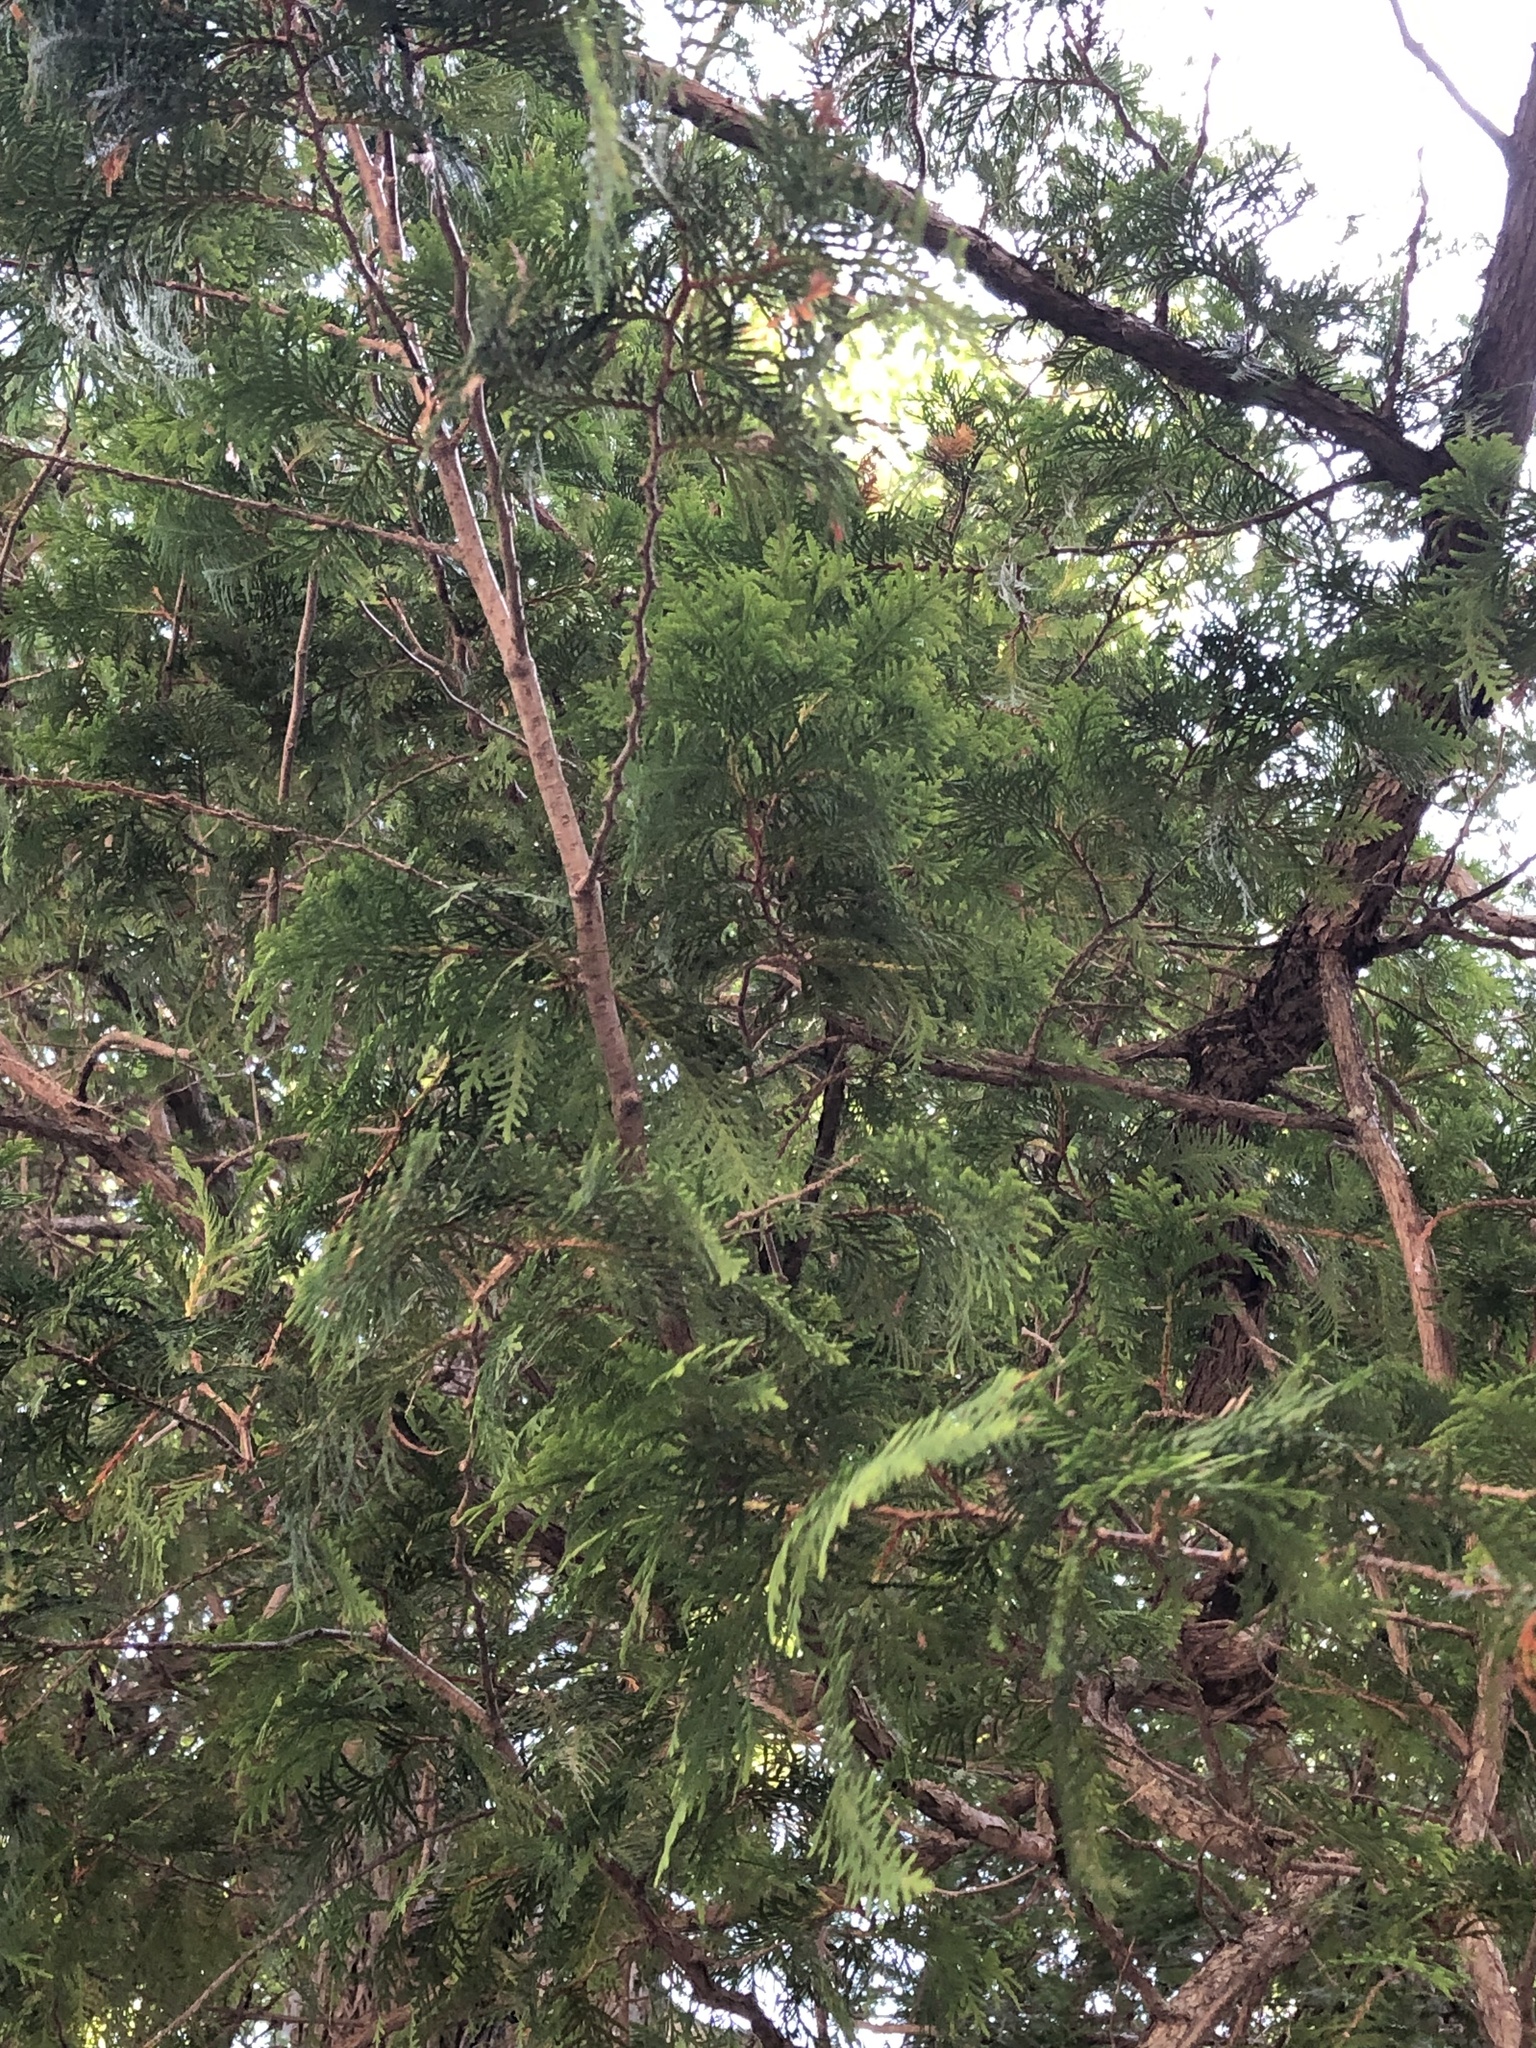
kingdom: Plantae
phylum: Tracheophyta
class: Pinopsida
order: Pinales
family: Cupressaceae
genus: Thuja
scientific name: Thuja occidentalis
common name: Northern white-cedar
